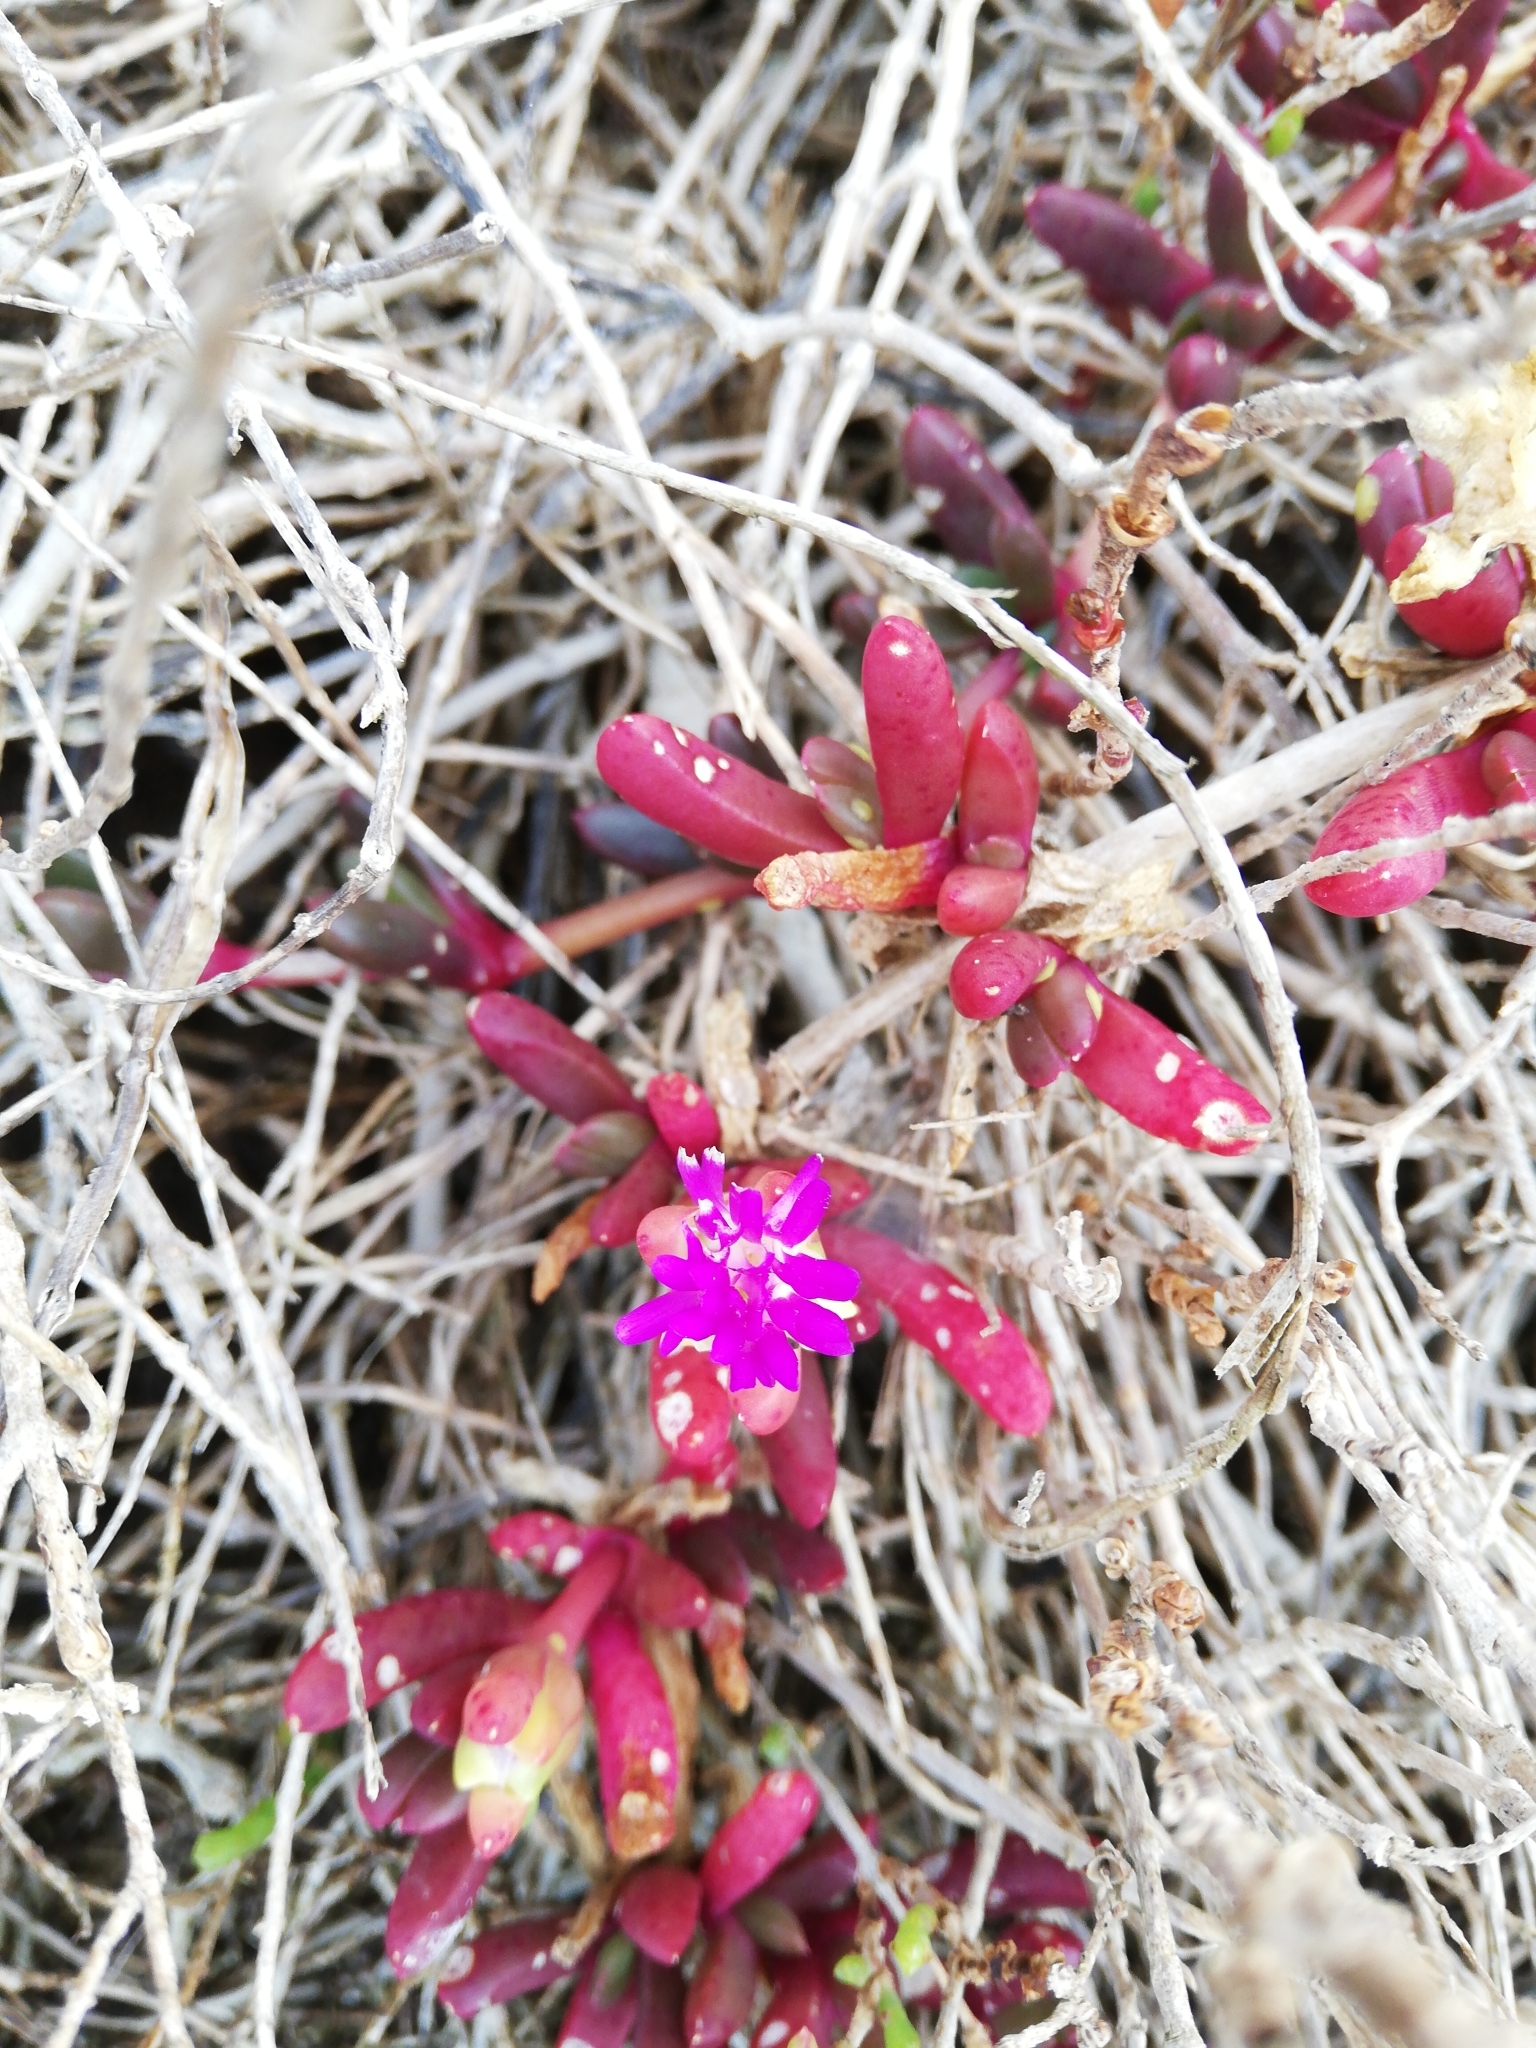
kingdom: Plantae
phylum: Tracheophyta
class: Magnoliopsida
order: Caryophyllales
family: Aizoaceae
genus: Disphyma
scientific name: Disphyma clavellatum
